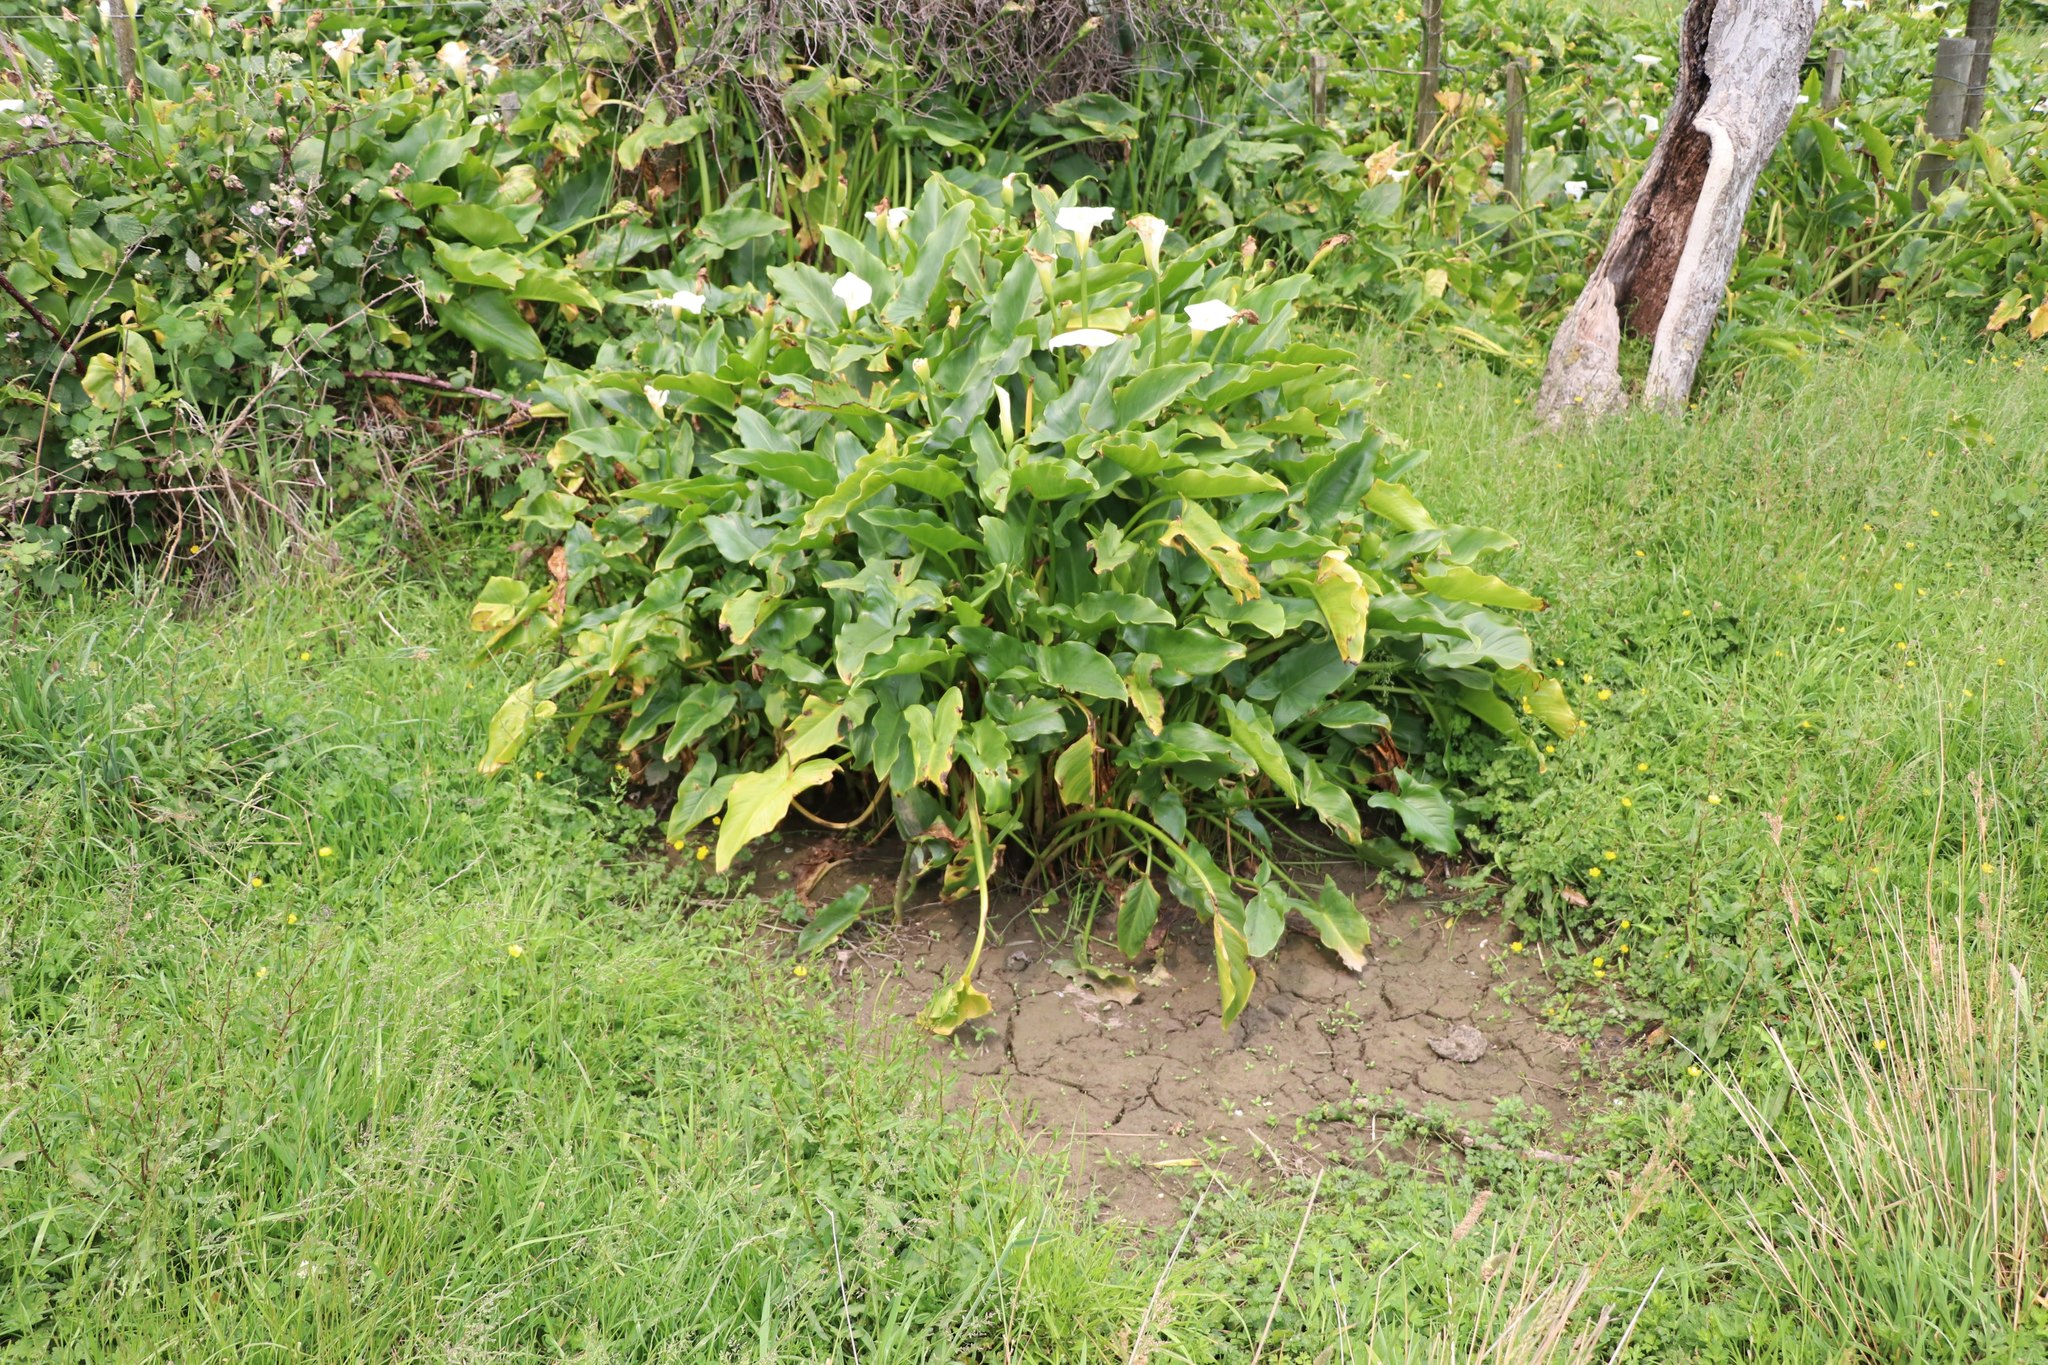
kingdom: Plantae
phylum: Tracheophyta
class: Liliopsida
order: Alismatales
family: Araceae
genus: Zantedeschia
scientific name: Zantedeschia aethiopica
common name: Altar-lily
